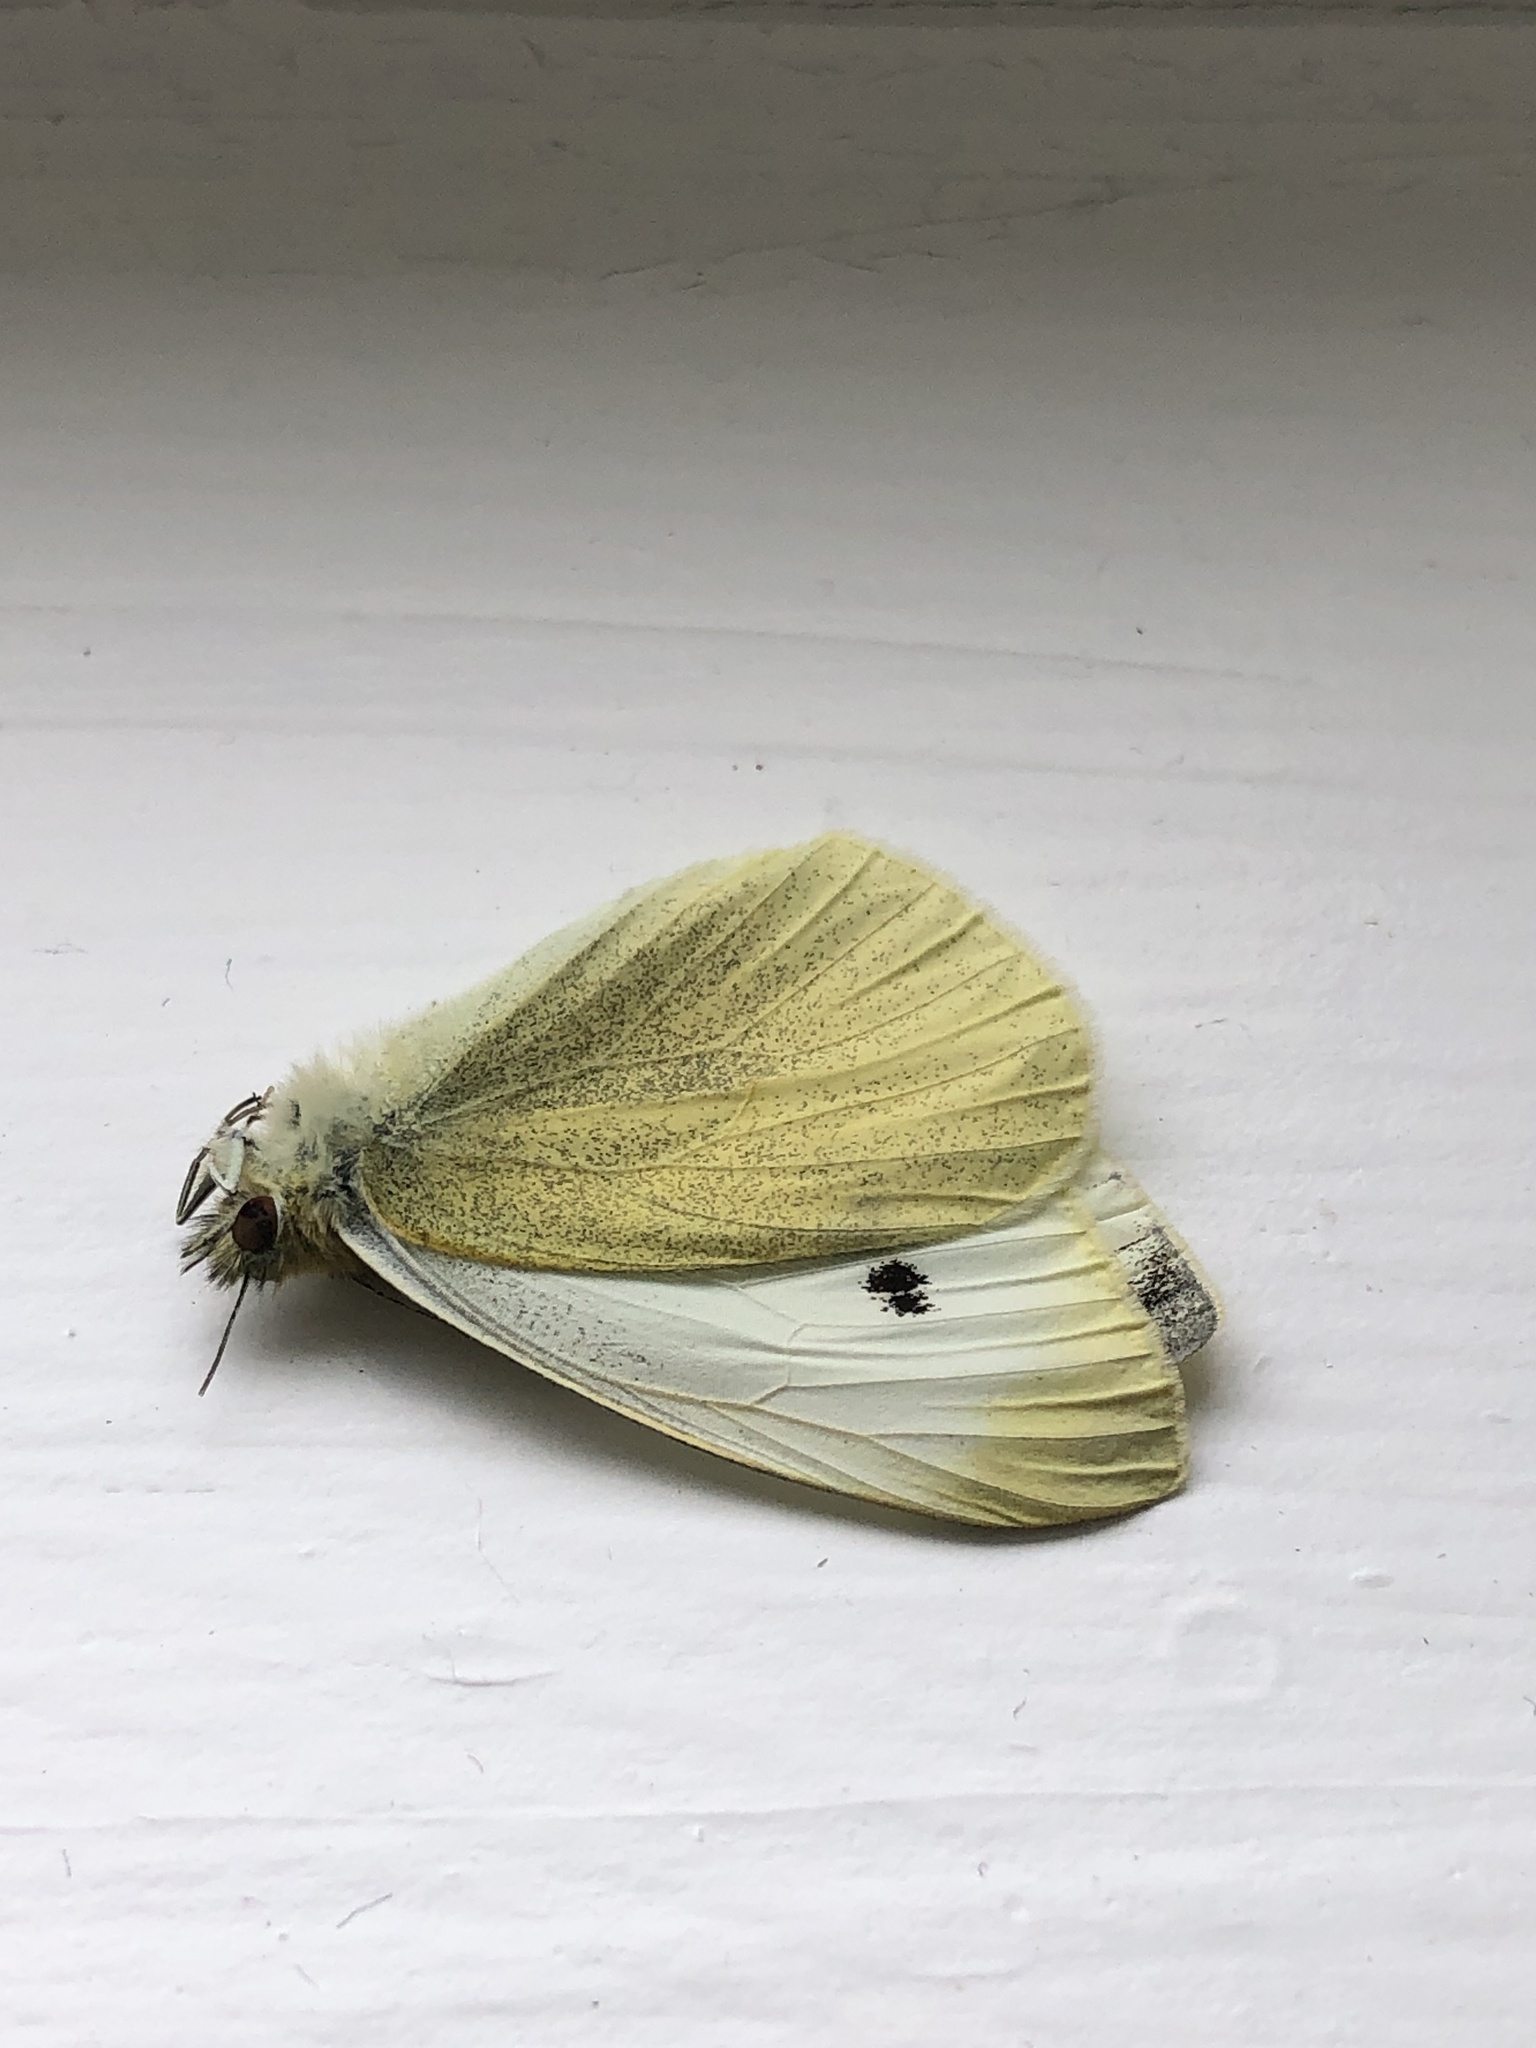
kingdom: Animalia
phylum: Arthropoda
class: Insecta
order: Lepidoptera
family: Pieridae
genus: Pieris
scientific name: Pieris rapae
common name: Small white
